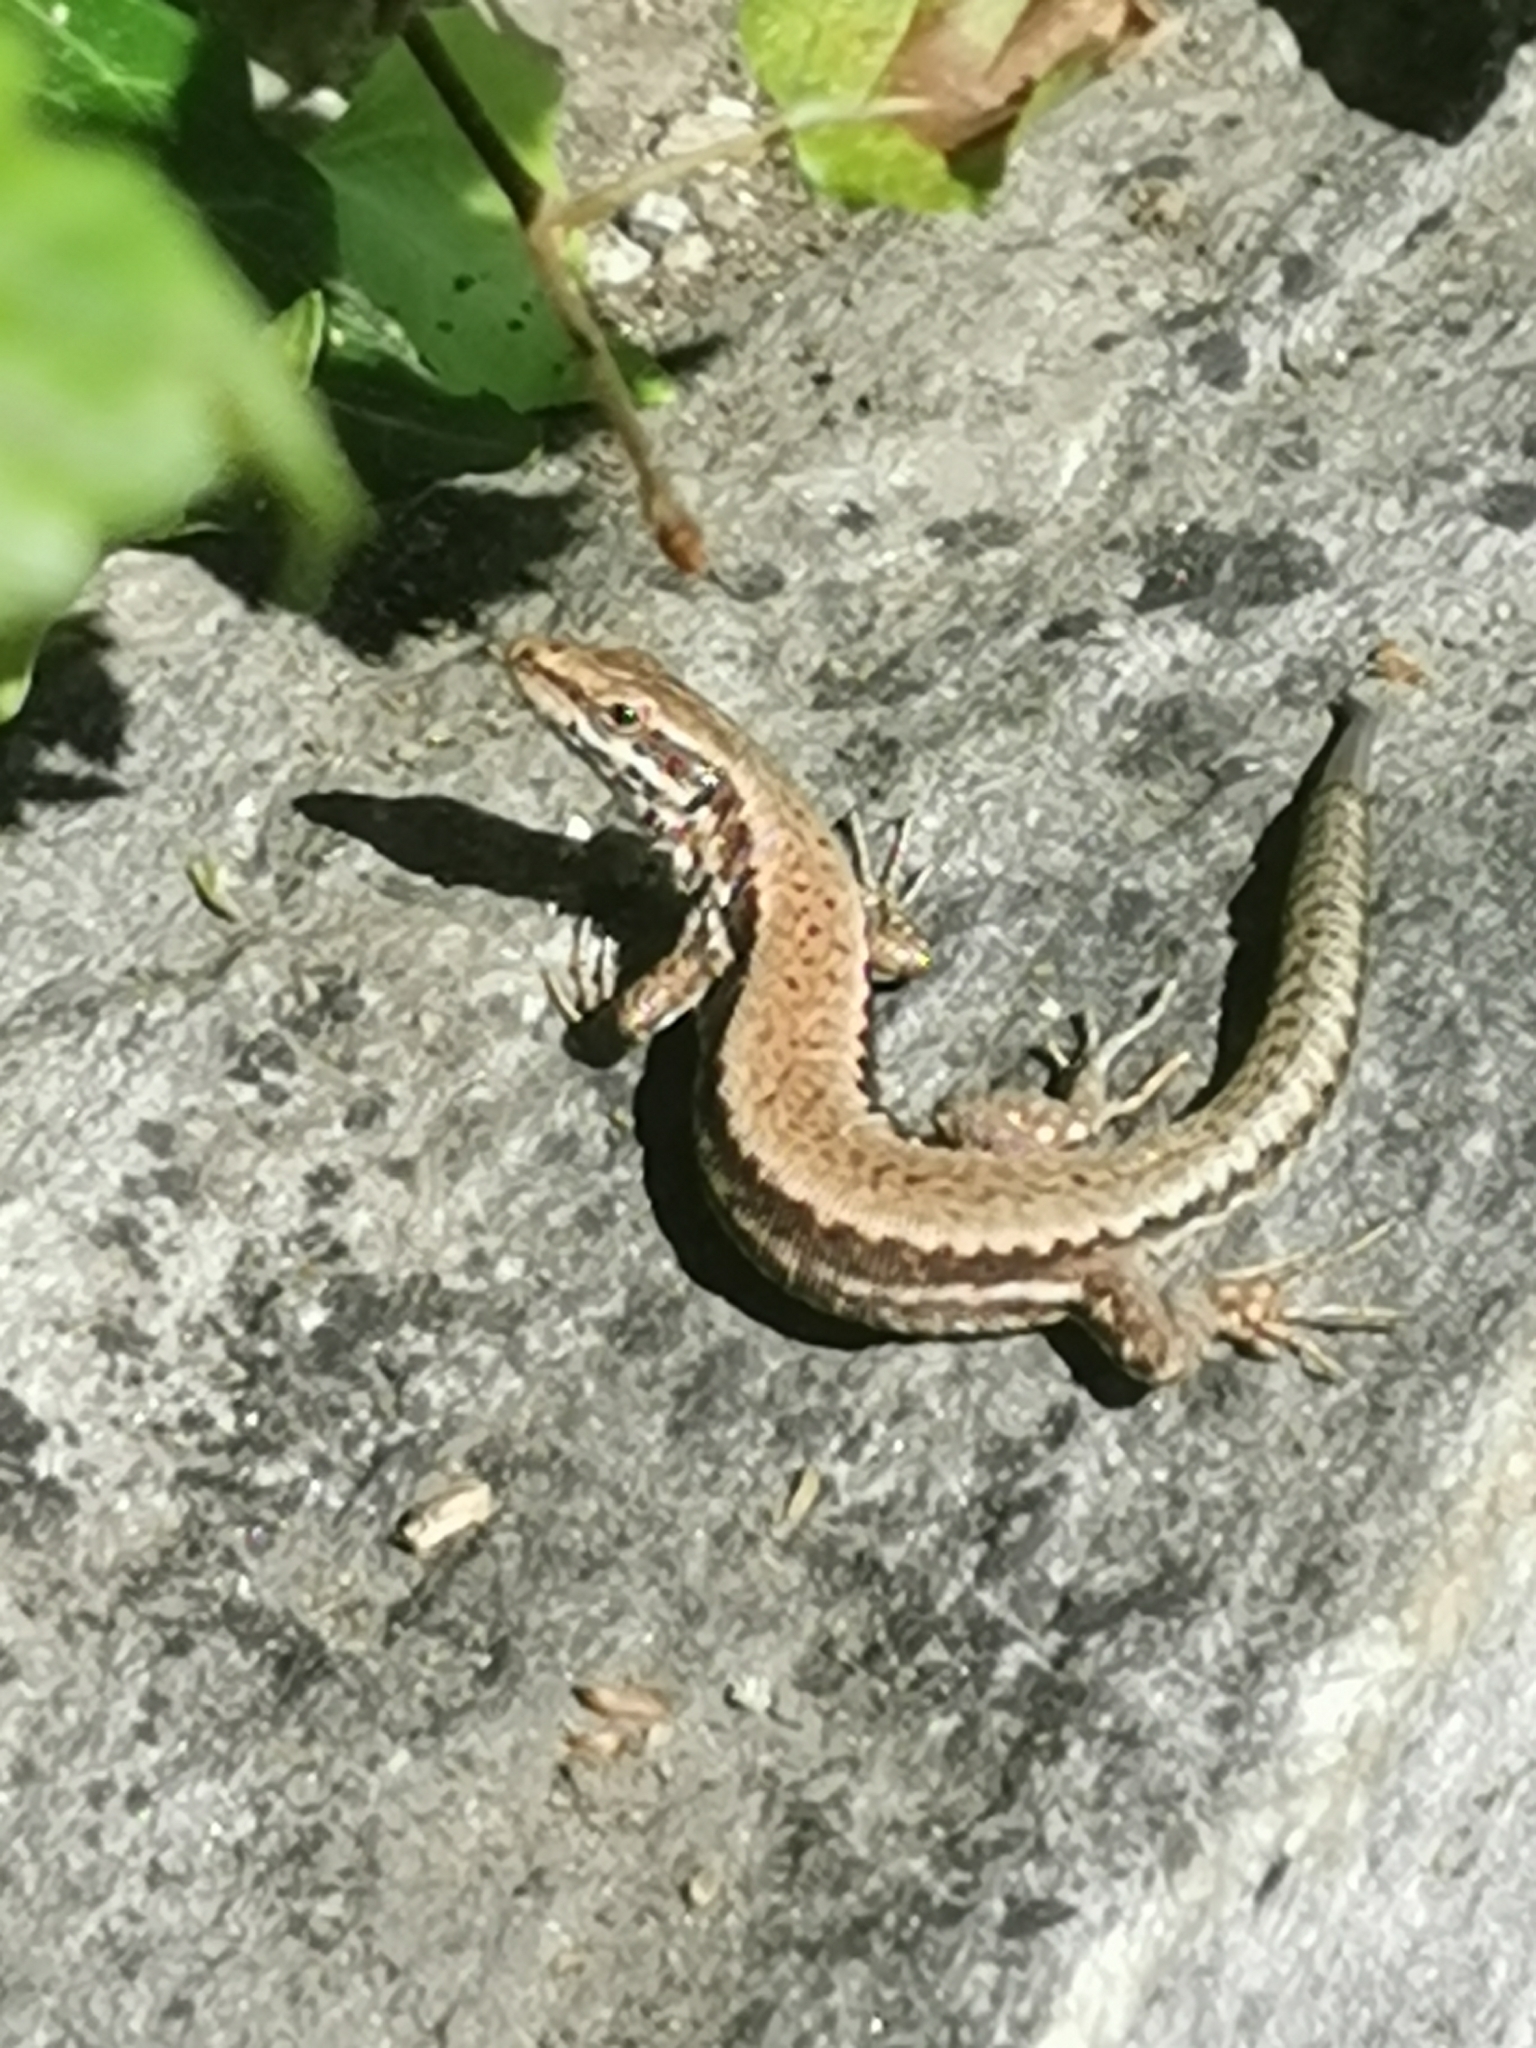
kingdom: Animalia
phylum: Chordata
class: Squamata
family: Lacertidae
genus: Podarcis
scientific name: Podarcis muralis
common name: Common wall lizard
